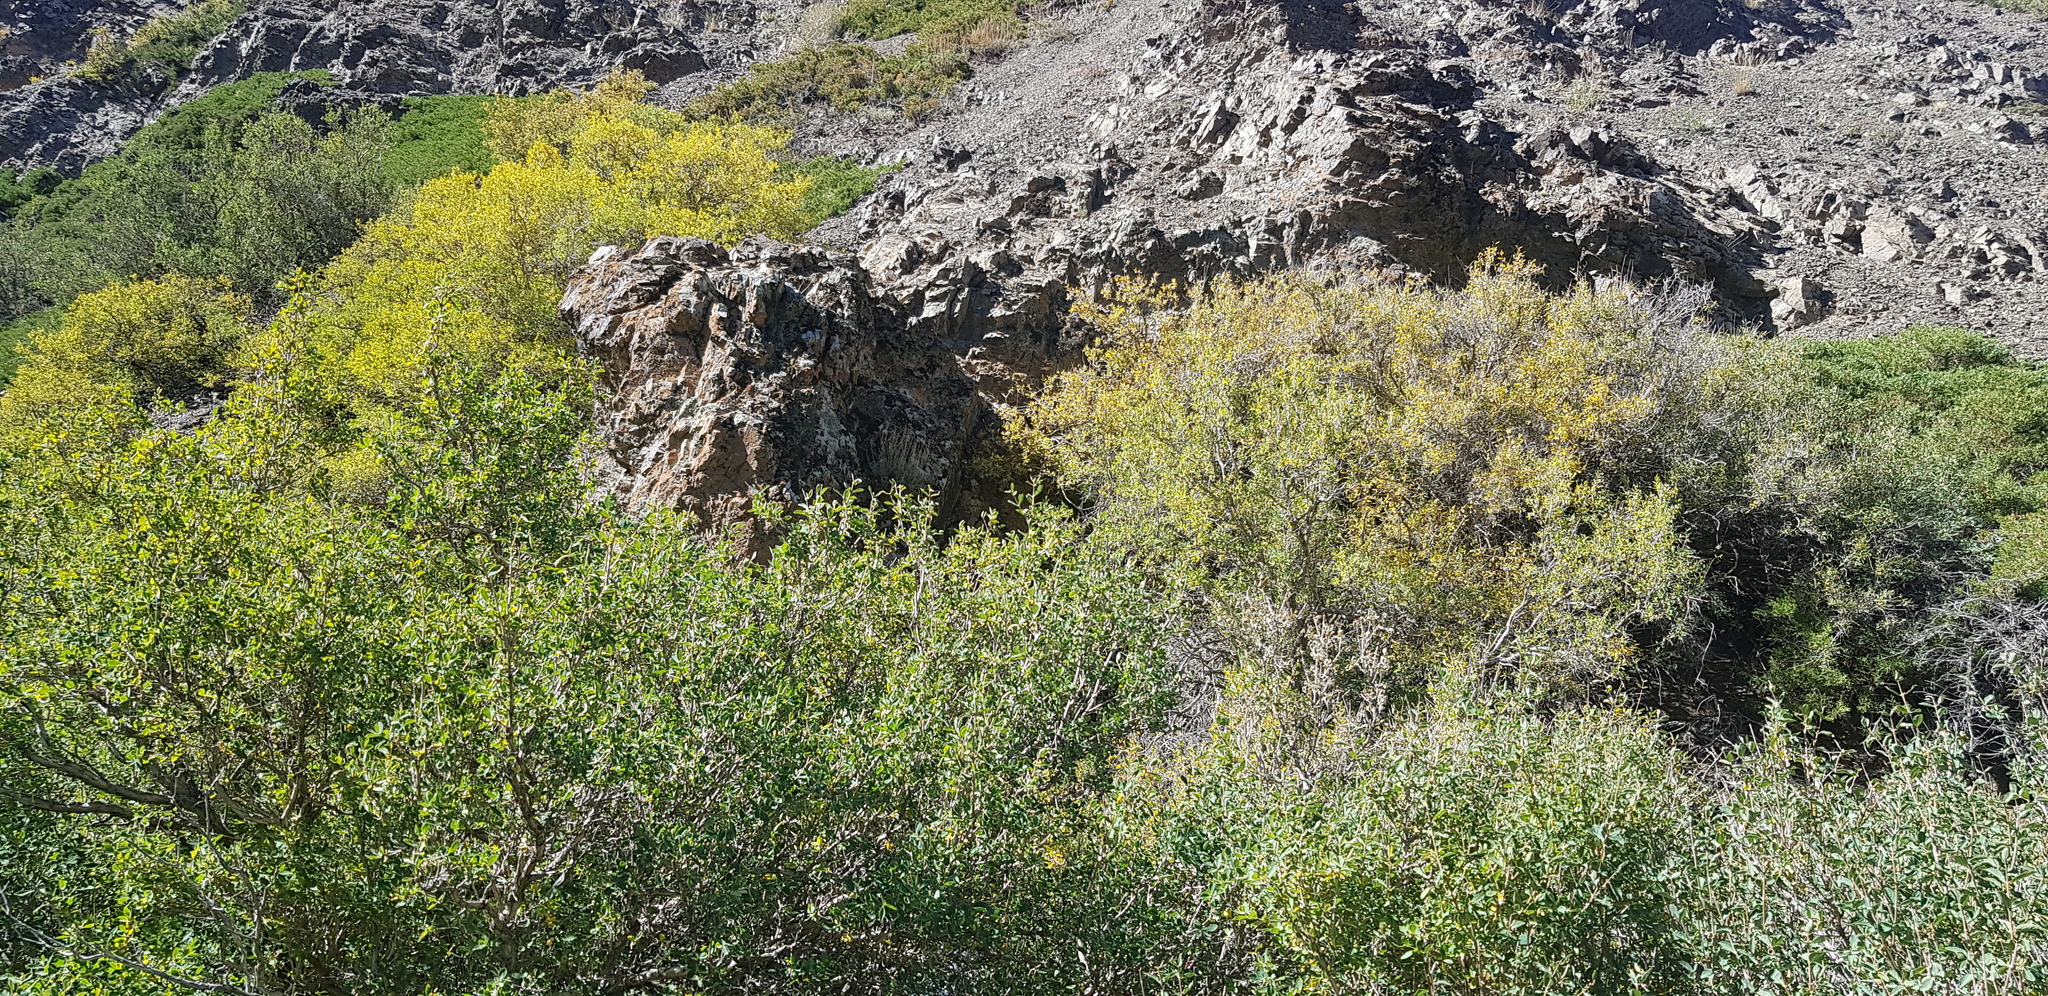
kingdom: Plantae
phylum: Tracheophyta
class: Magnoliopsida
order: Dipsacales
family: Caprifoliaceae
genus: Lonicera
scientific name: Lonicera microphylla
